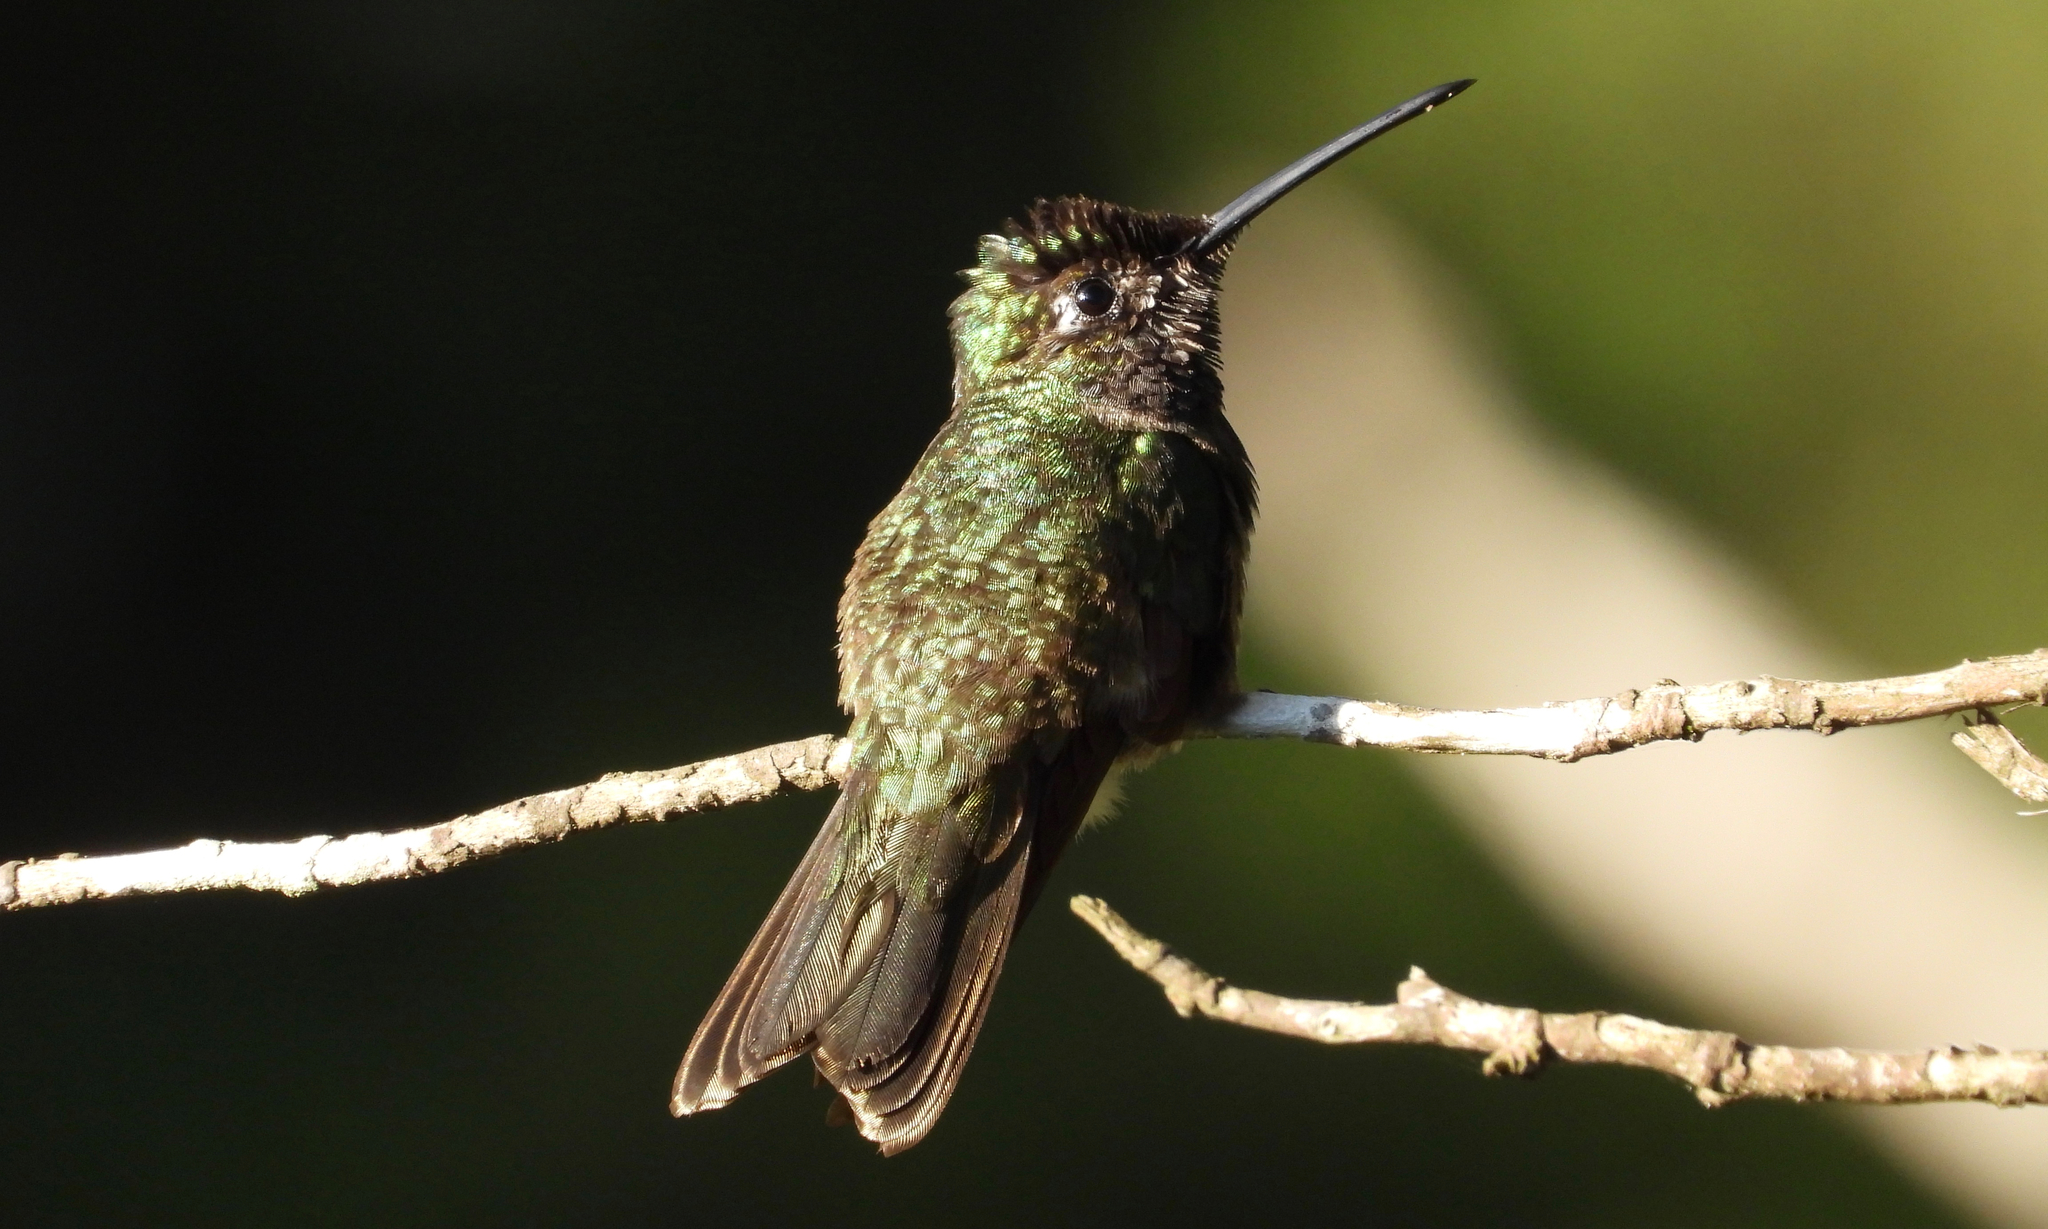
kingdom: Animalia
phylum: Chordata
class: Aves
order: Apodiformes
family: Trochilidae
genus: Eugenes
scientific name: Eugenes fulgens
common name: Magnificent hummingbird
